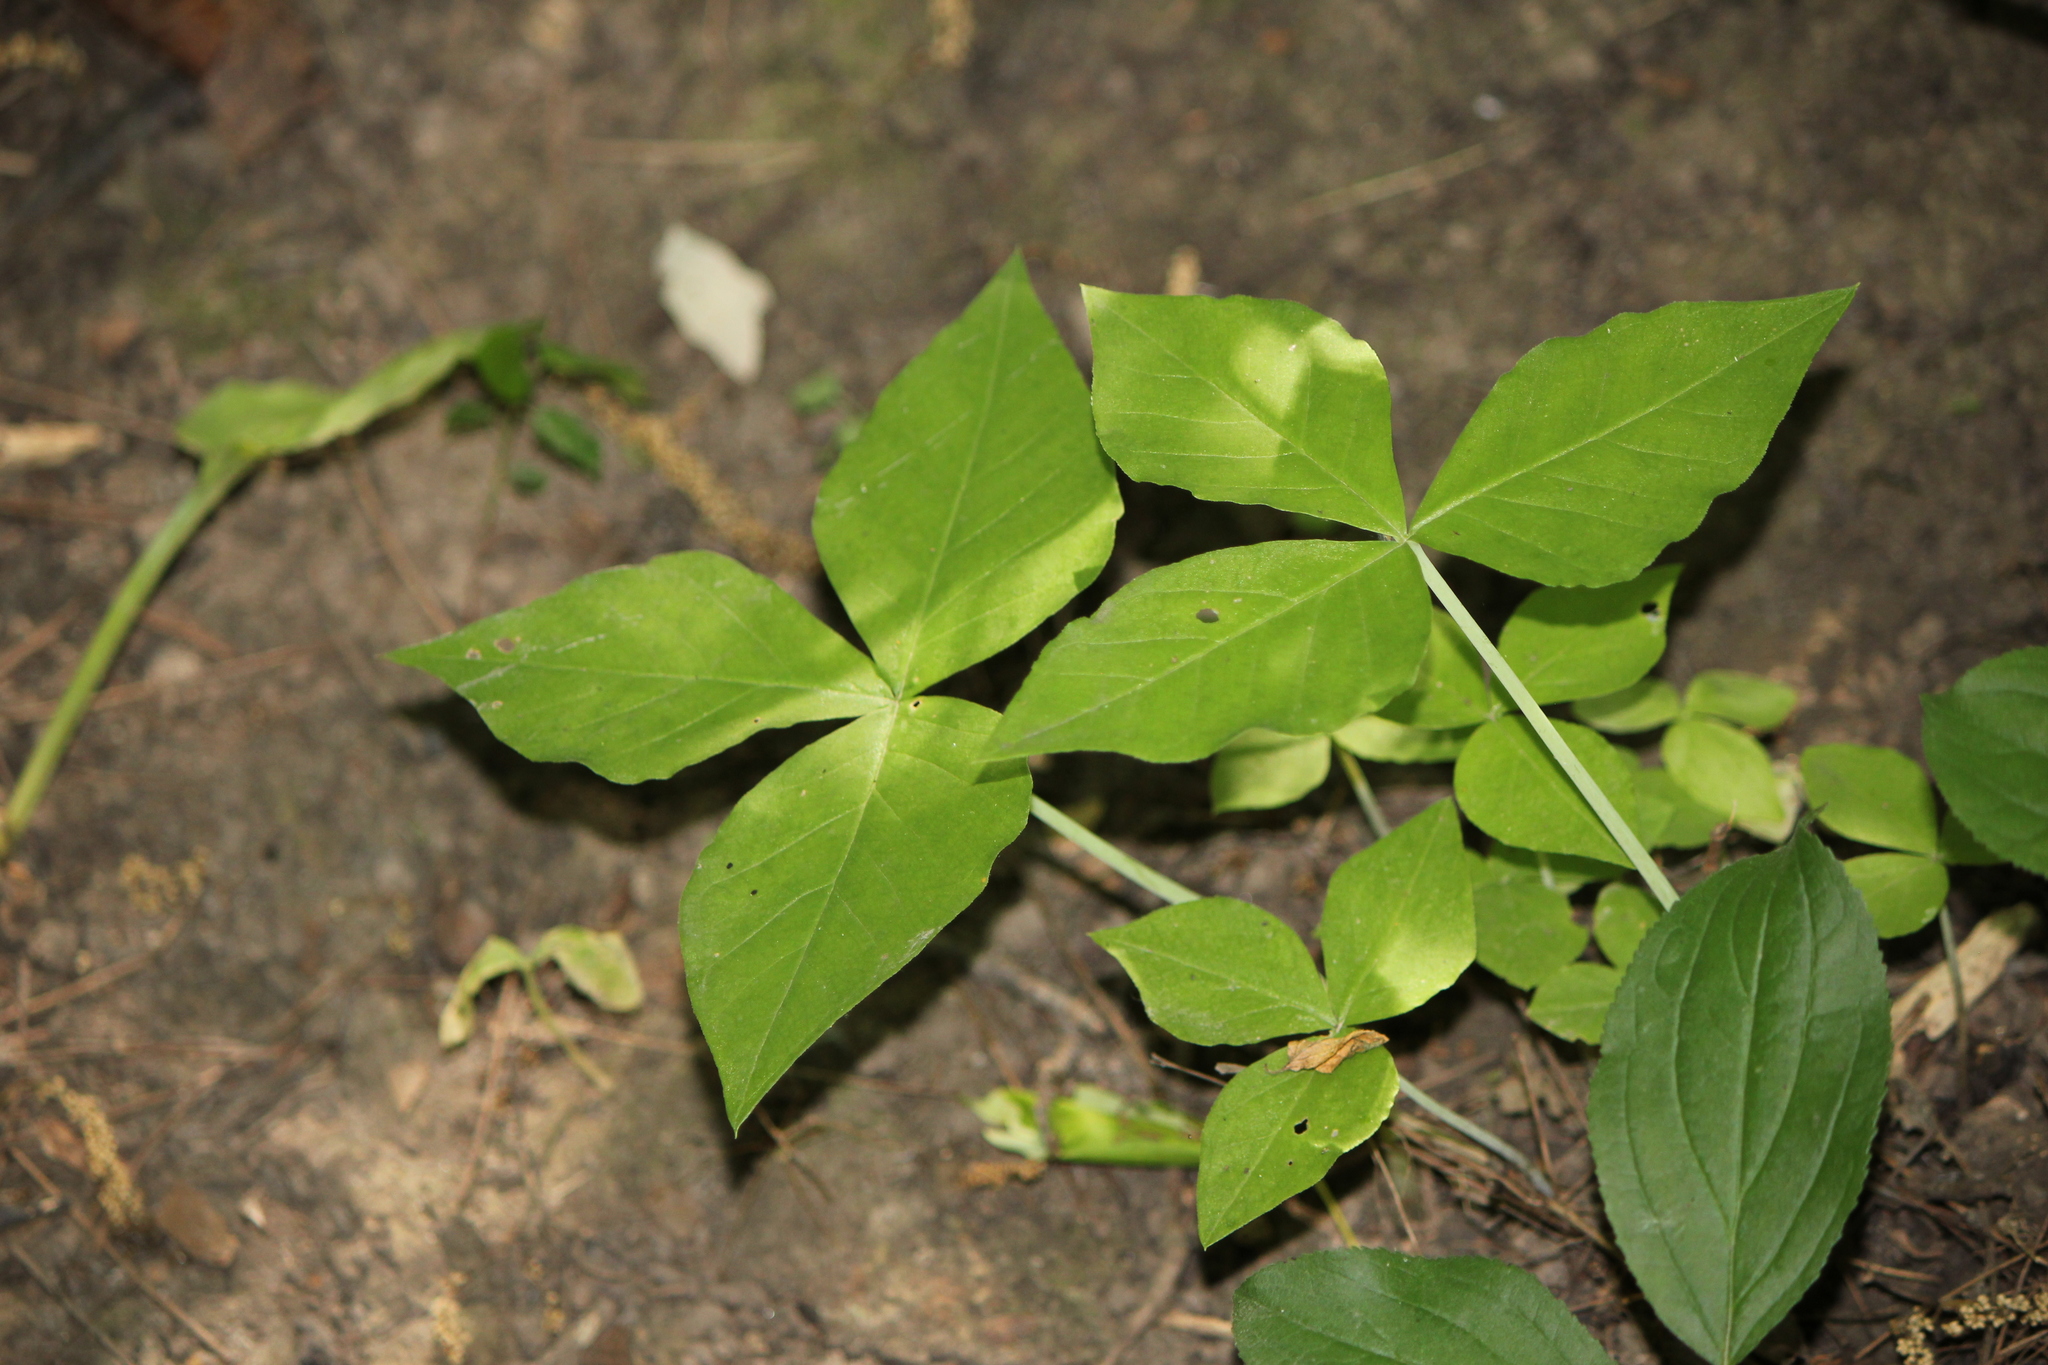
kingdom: Plantae
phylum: Tracheophyta
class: Liliopsida
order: Alismatales
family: Araceae
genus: Arisaema
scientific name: Arisaema triphyllum
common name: Jack-in-the-pulpit
